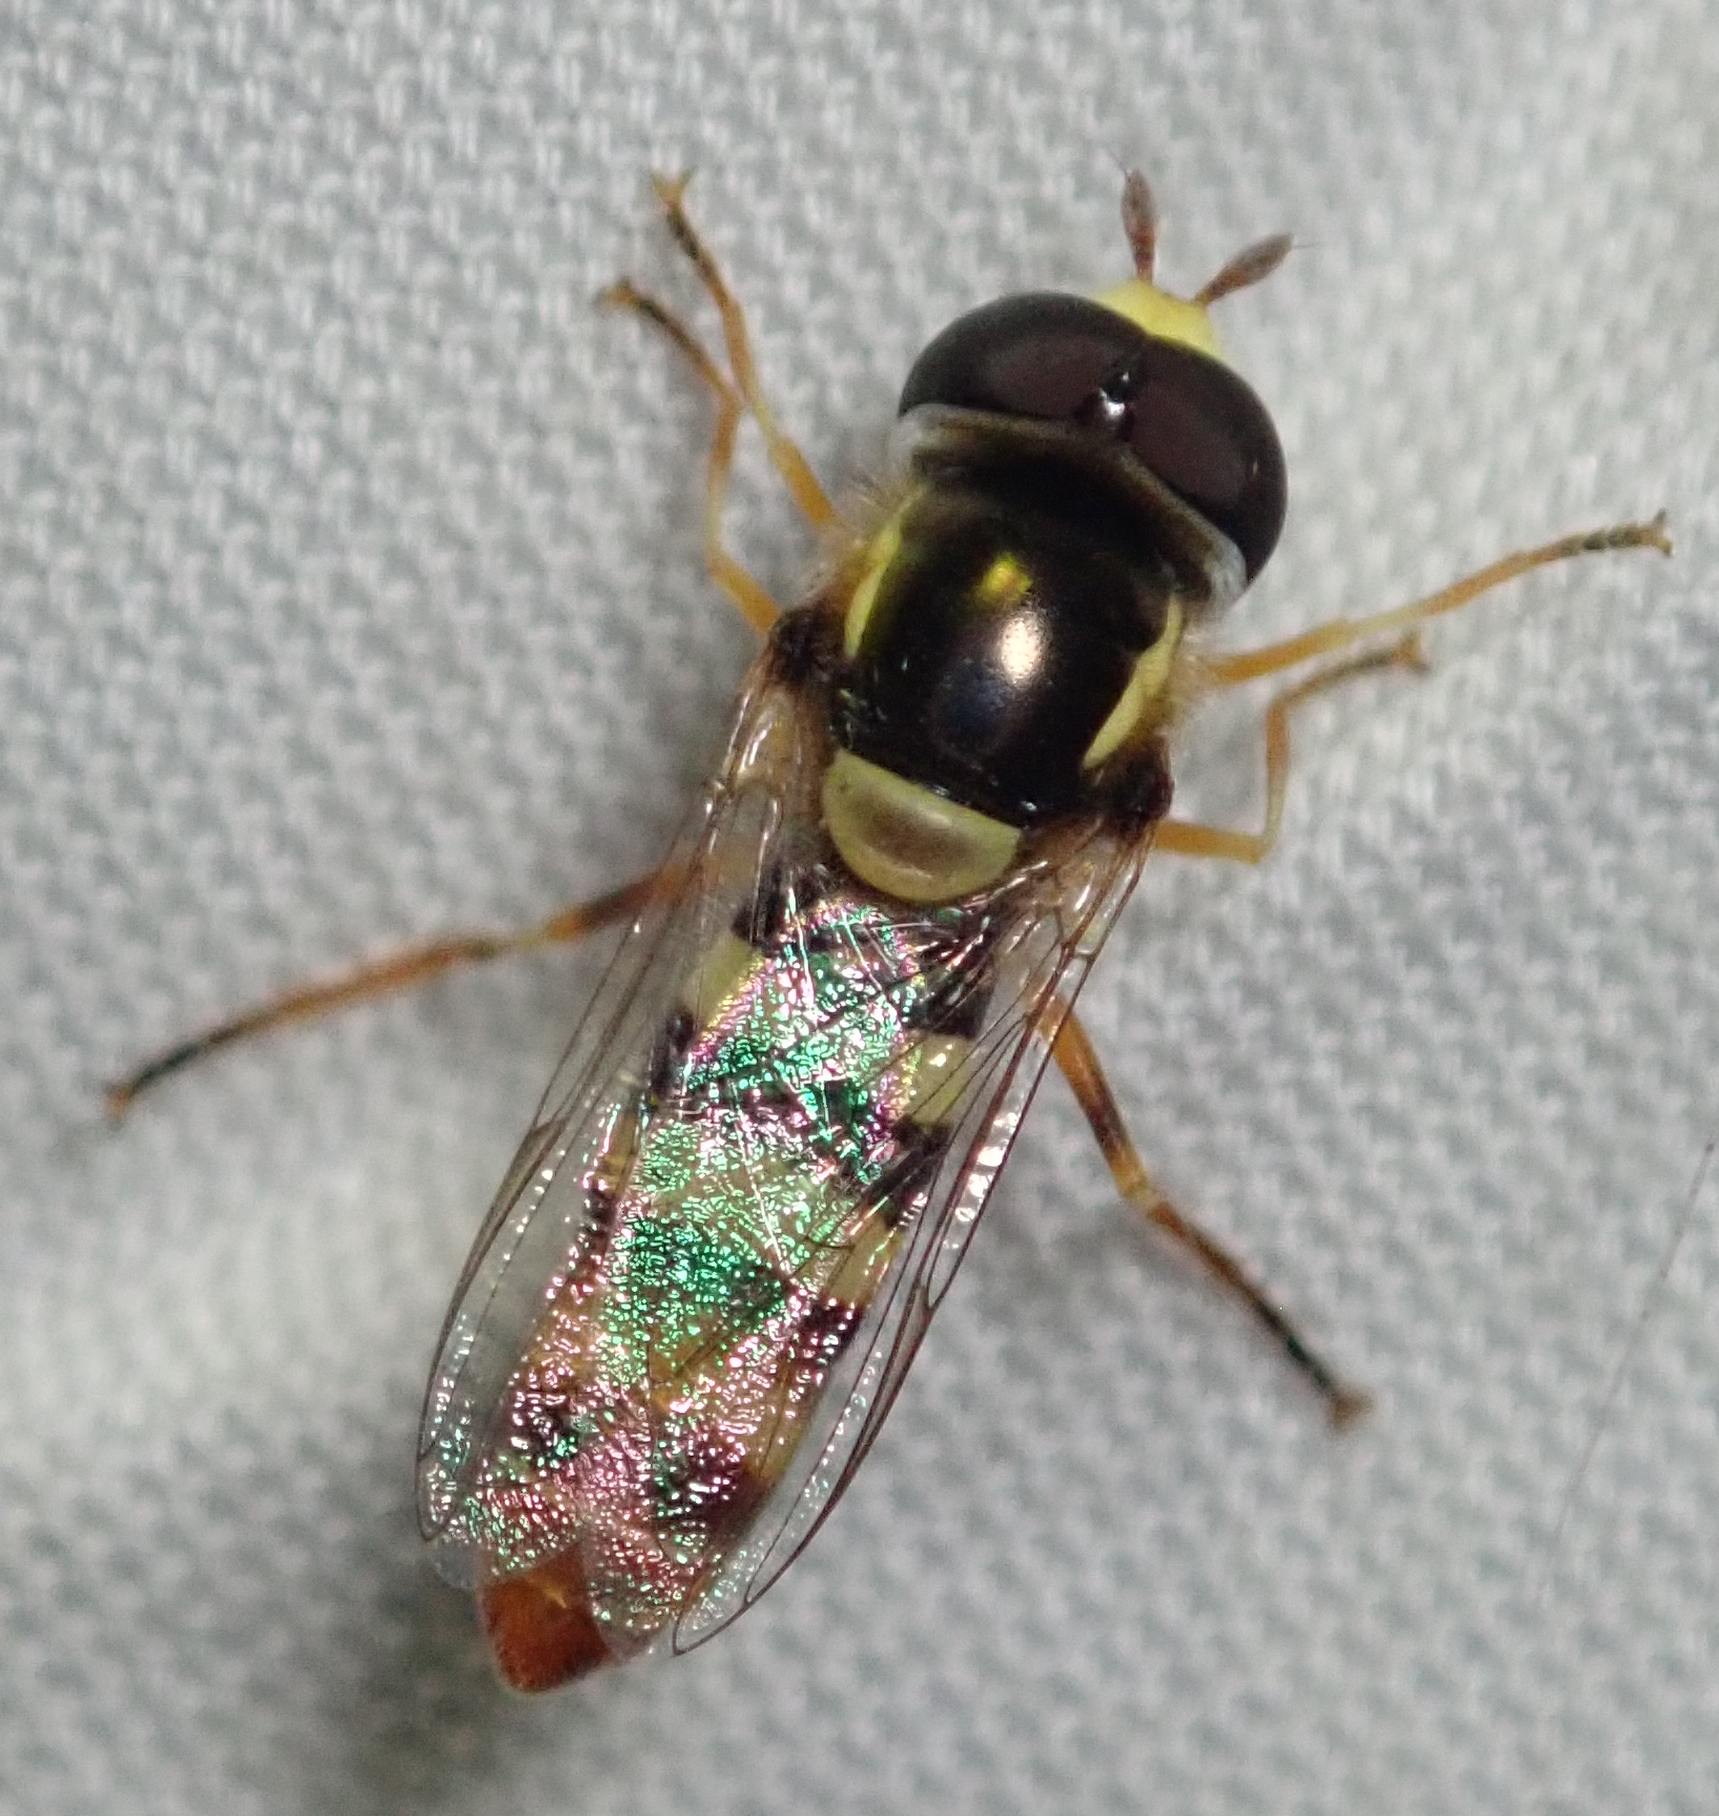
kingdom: Animalia
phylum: Arthropoda
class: Insecta
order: Diptera
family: Syrphidae
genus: Ischiodon
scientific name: Ischiodon aegyptius
